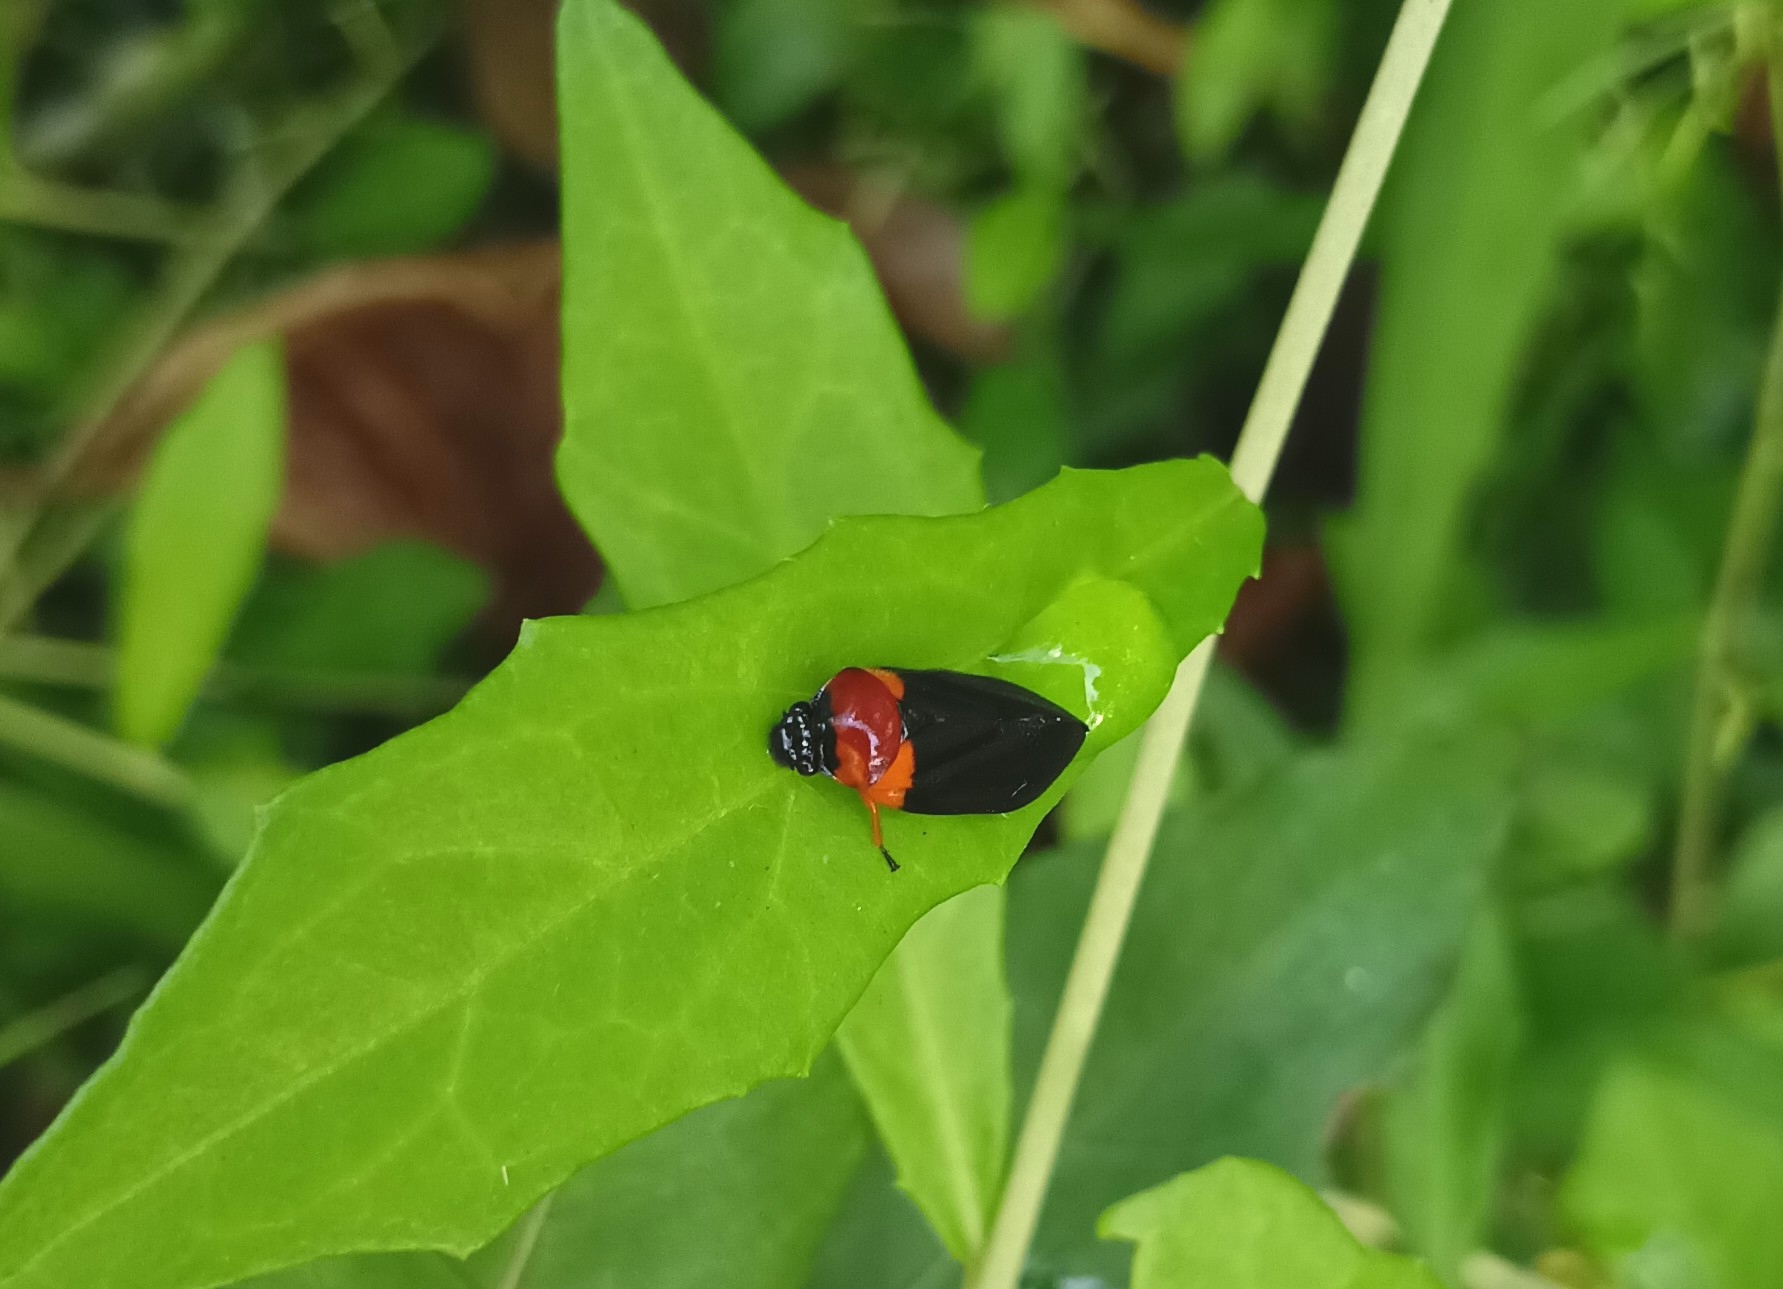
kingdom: Animalia
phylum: Arthropoda
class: Insecta
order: Hemiptera
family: Cercopidae
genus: Phymatostetha
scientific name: Phymatostetha deschampsi
